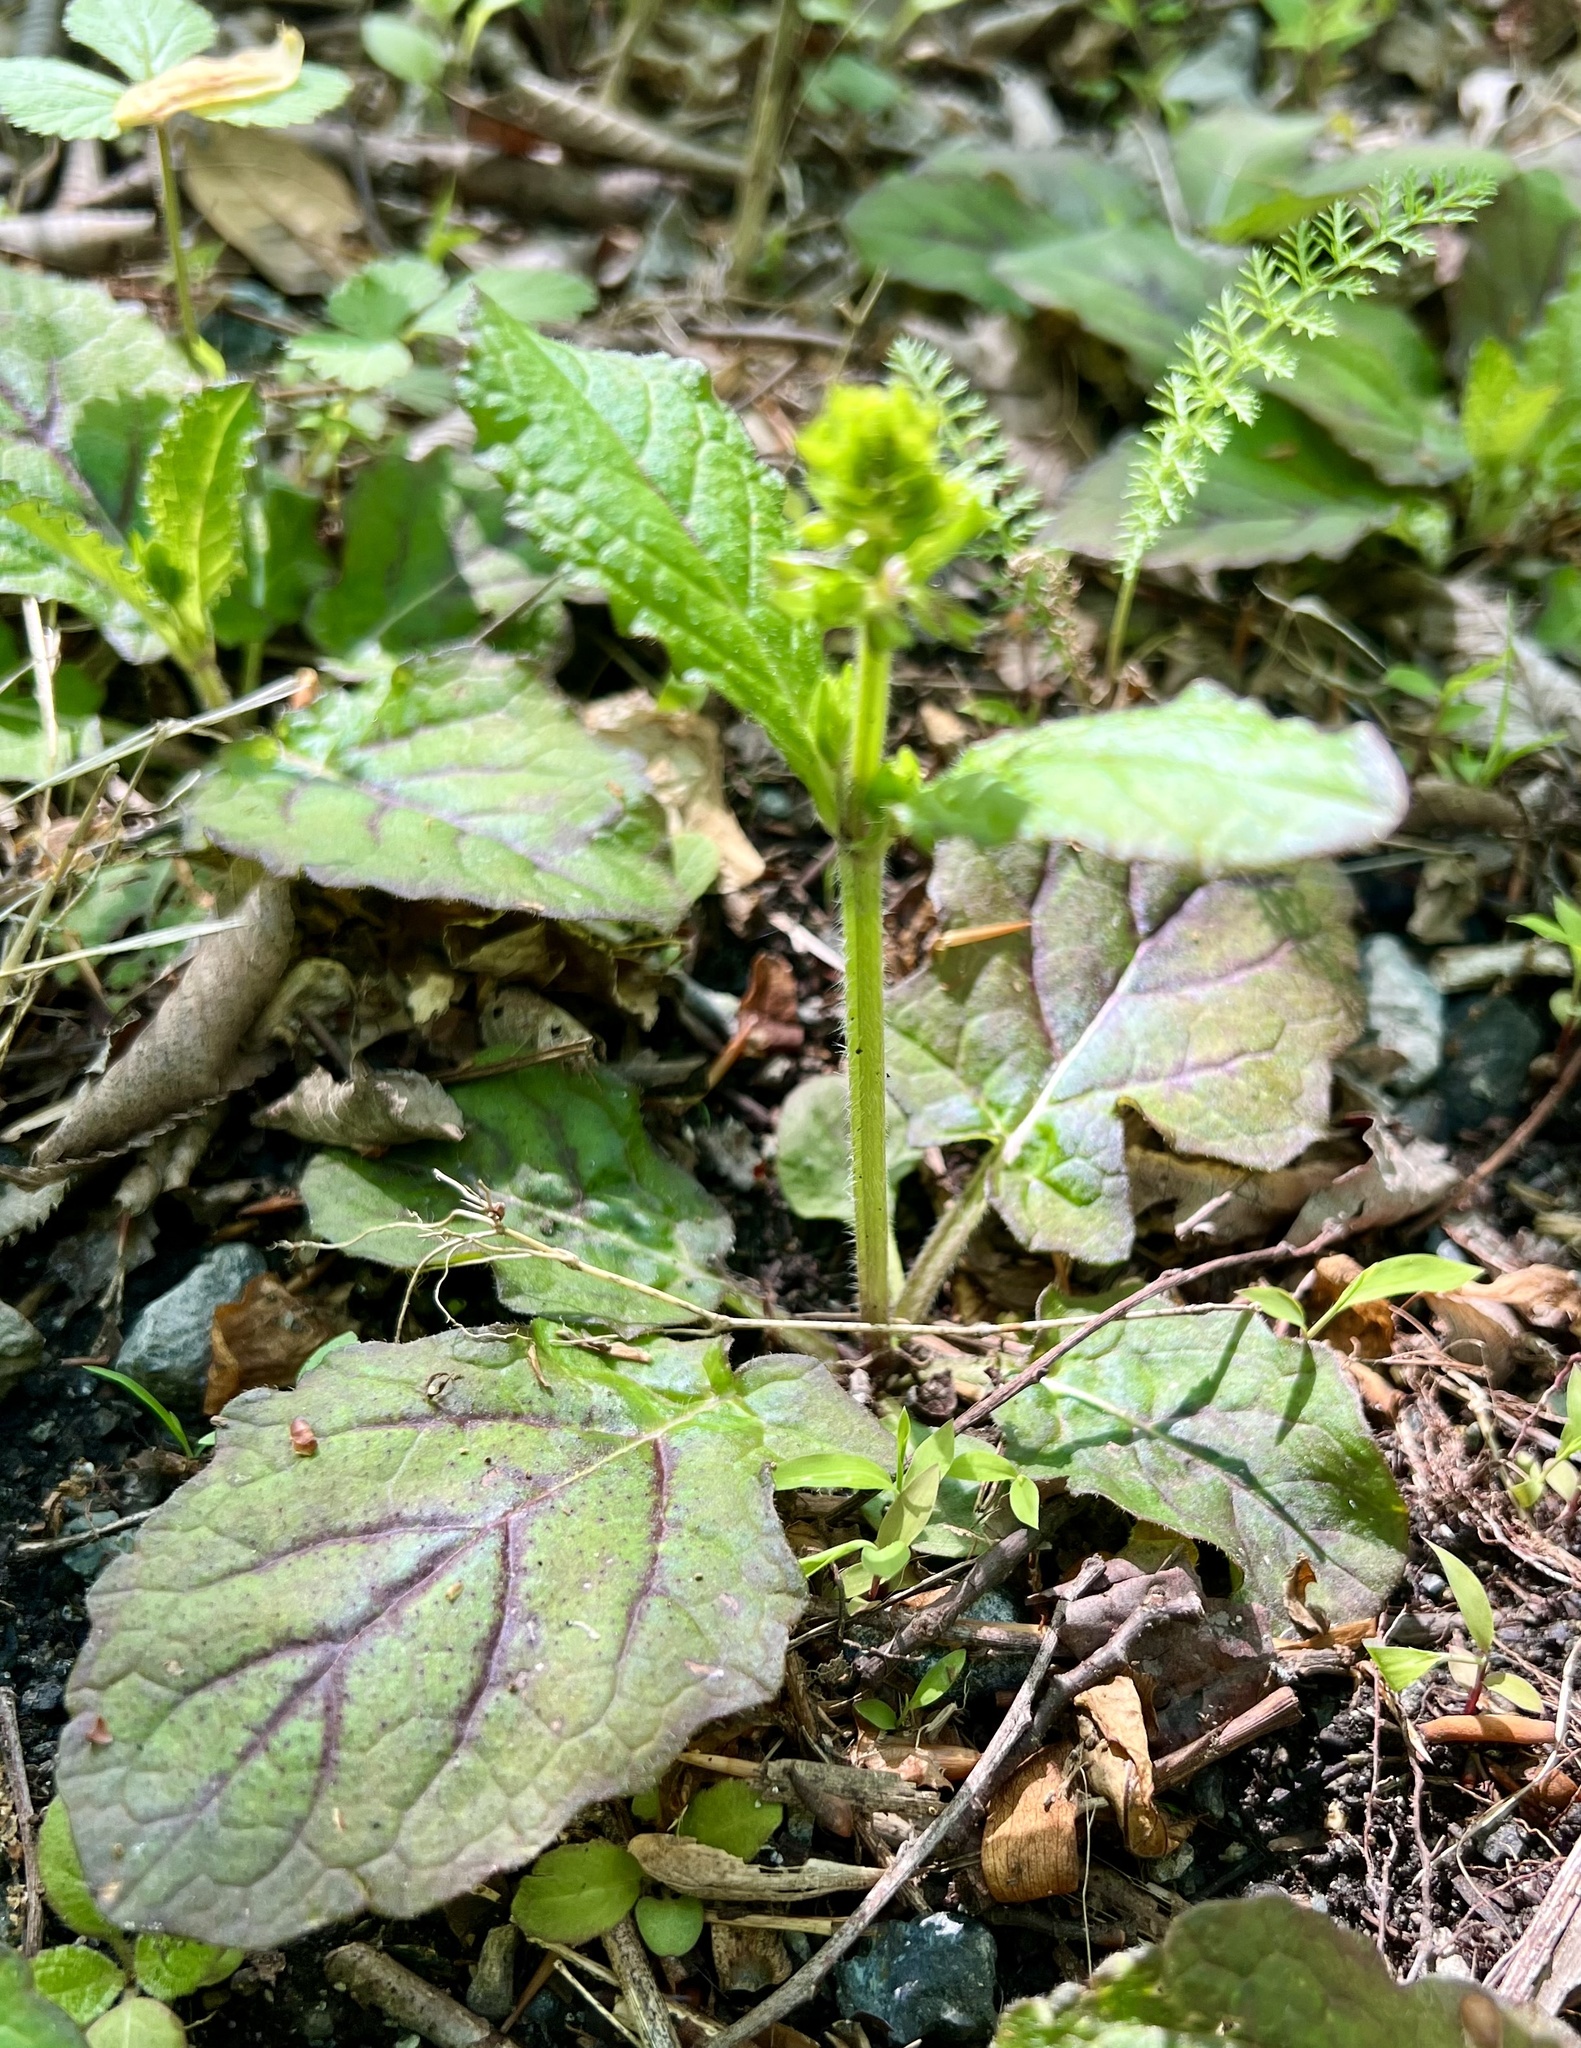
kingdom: Plantae
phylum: Tracheophyta
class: Magnoliopsida
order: Lamiales
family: Lamiaceae
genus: Salvia
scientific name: Salvia lyrata
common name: Cancerweed
